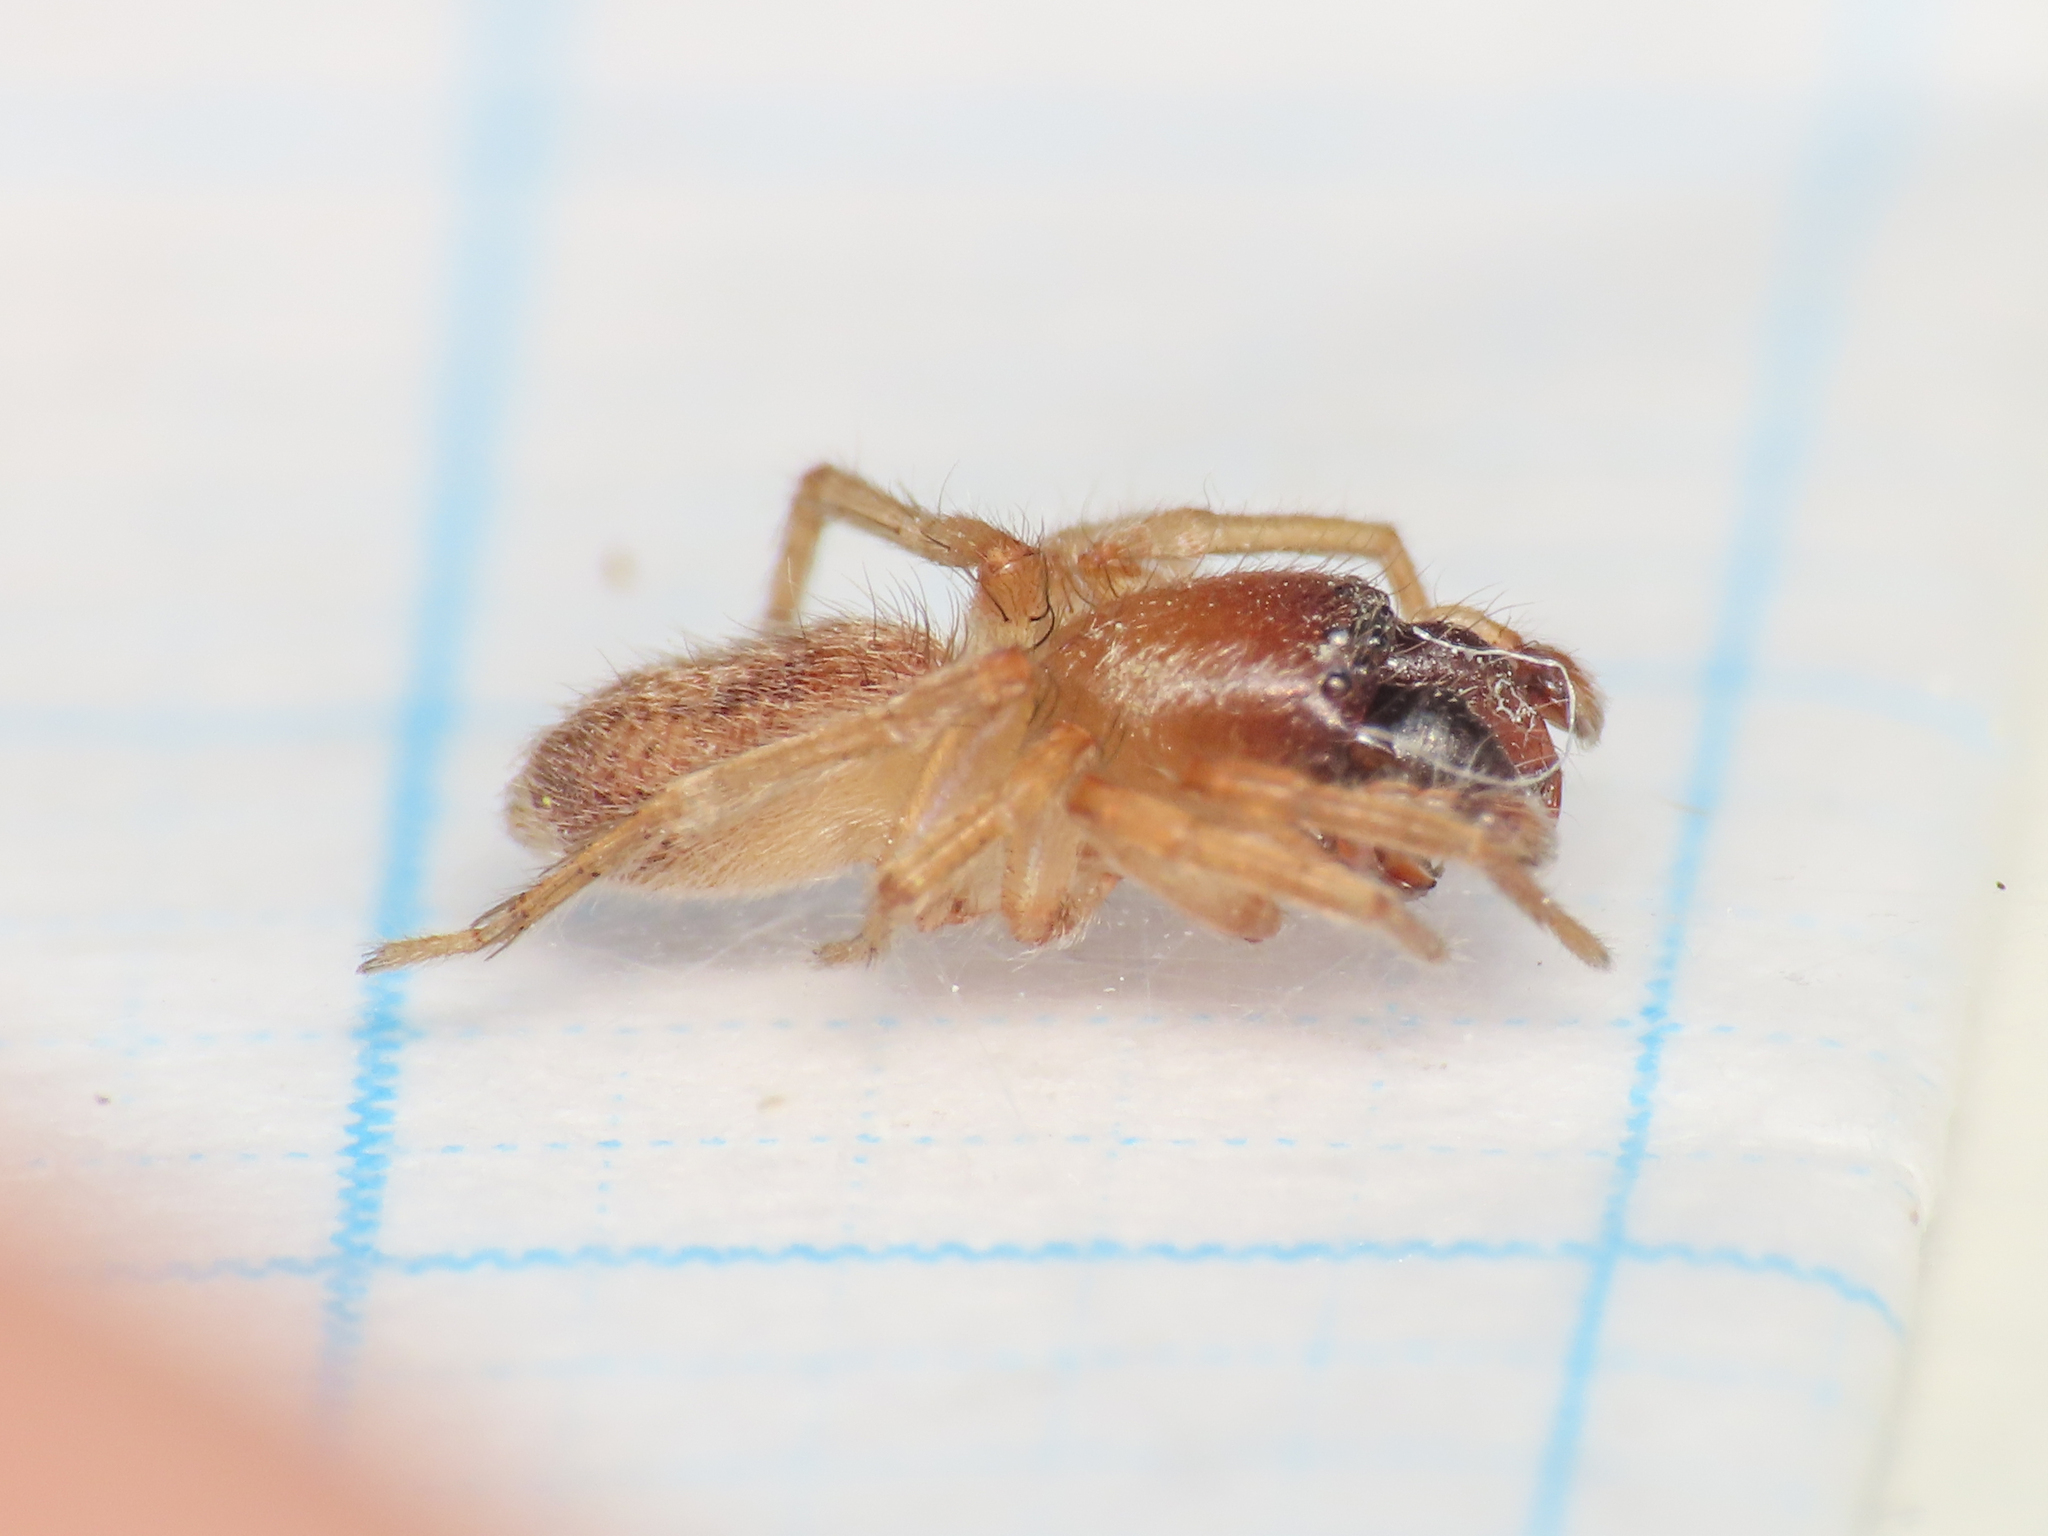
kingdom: Animalia
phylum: Arthropoda
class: Arachnida
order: Araneae
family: Clubionidae
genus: Porrhoclubiona
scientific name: Porrhoclubiona vegeta
